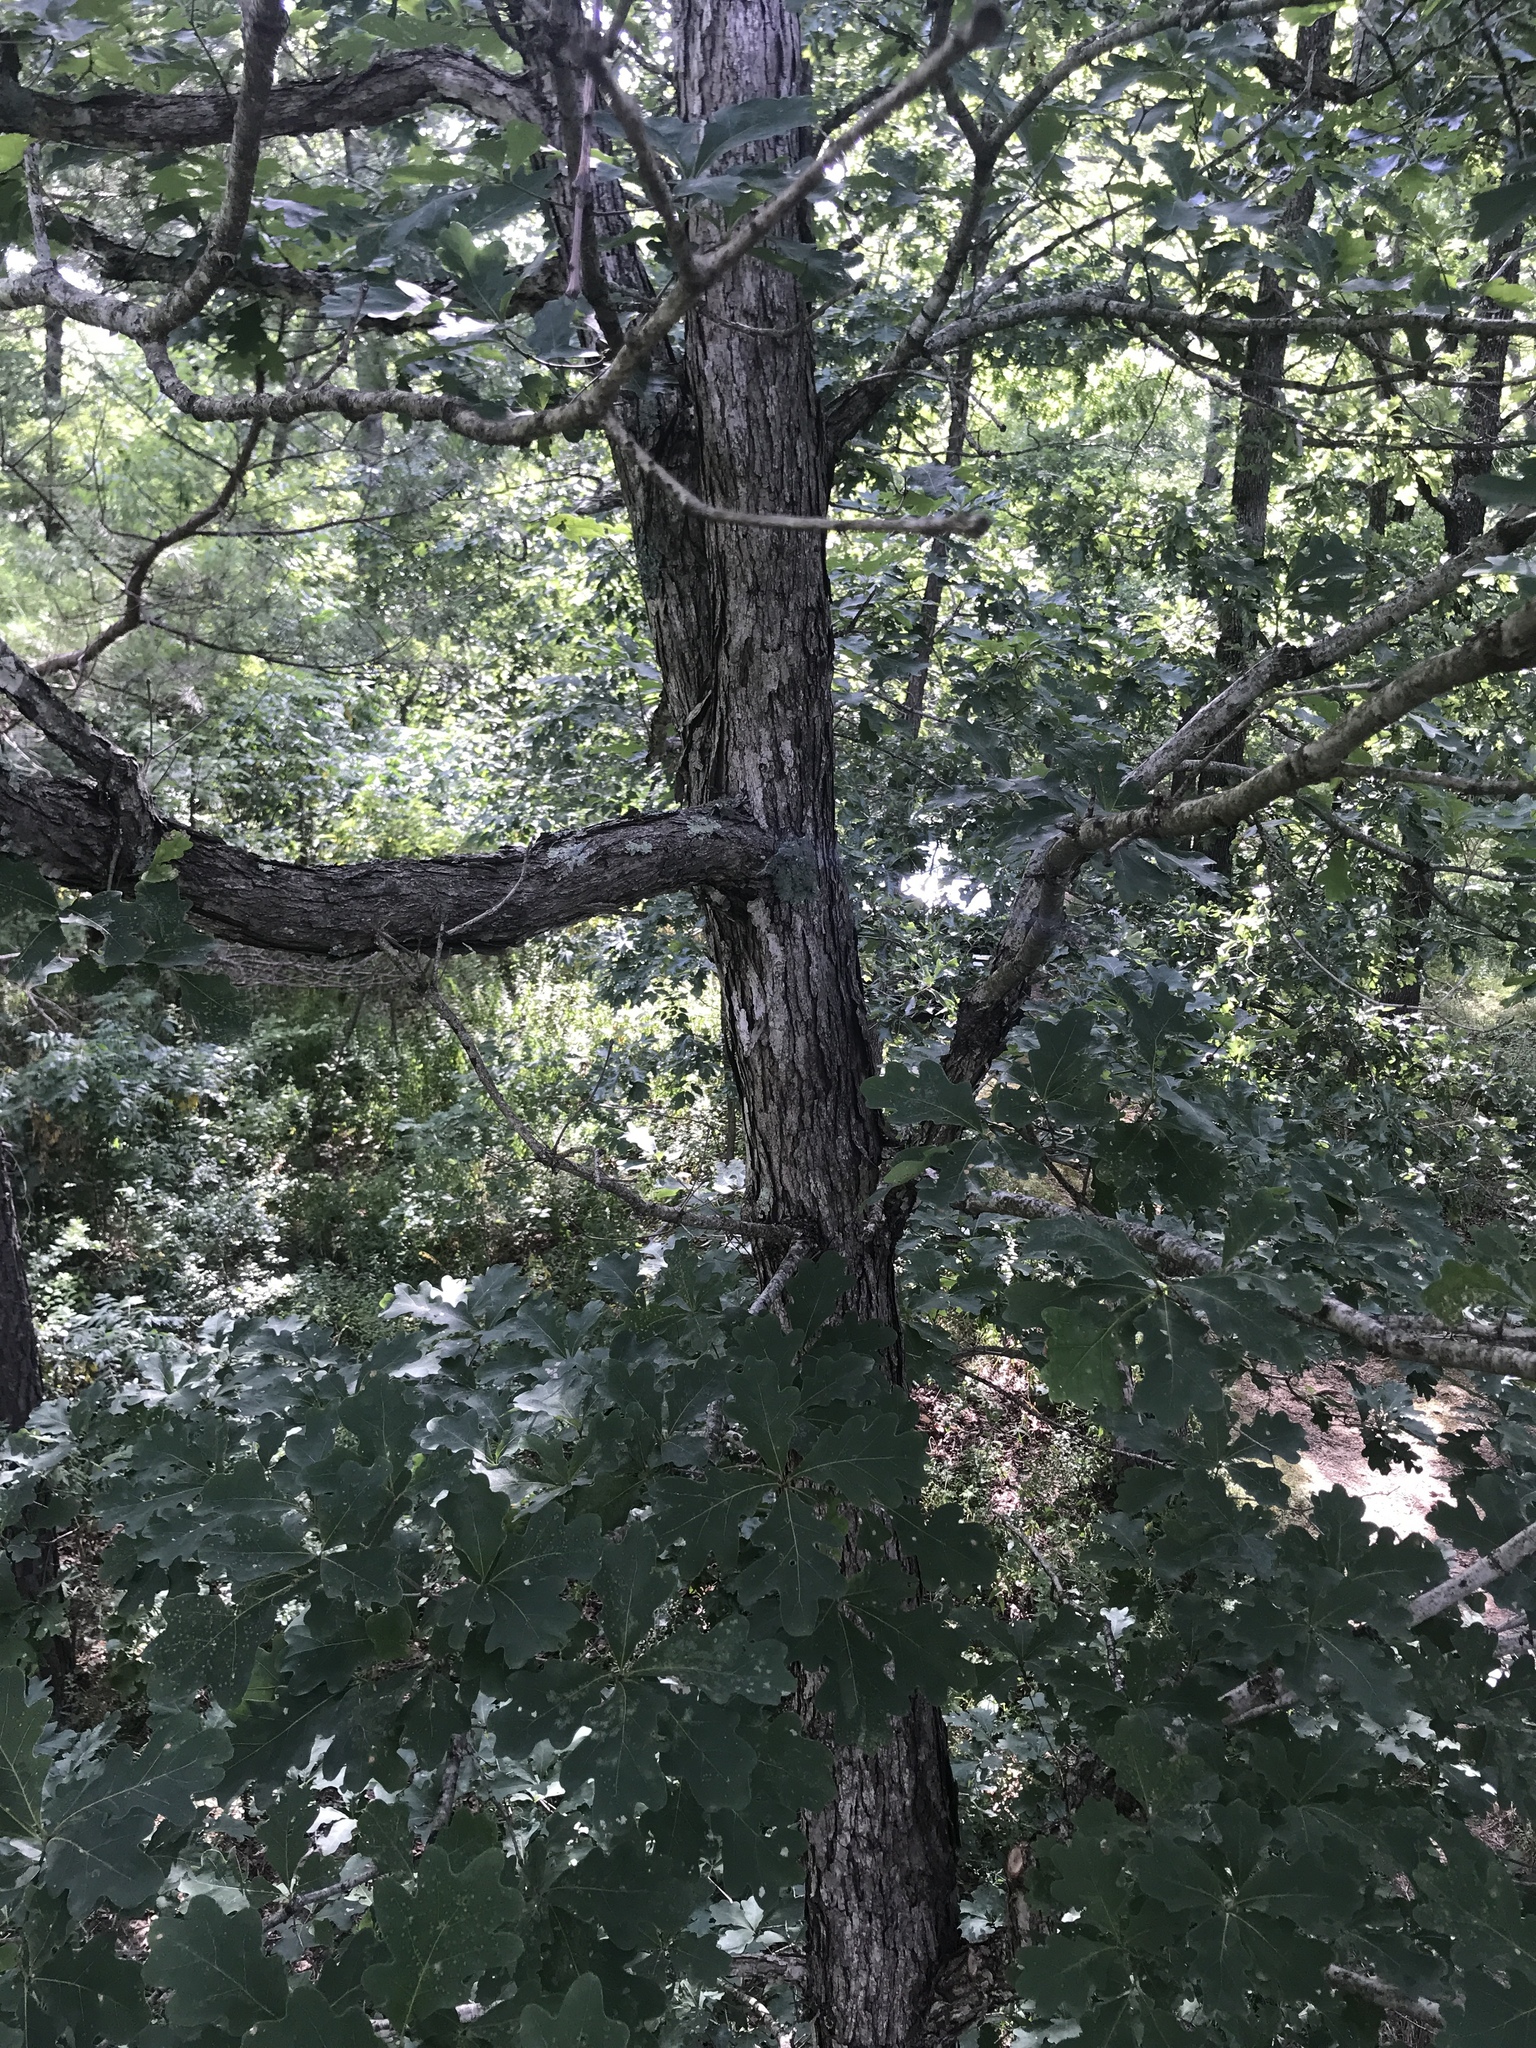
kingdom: Plantae
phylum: Tracheophyta
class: Magnoliopsida
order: Fagales
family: Fagaceae
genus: Quercus
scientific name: Quercus alba
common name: White oak
